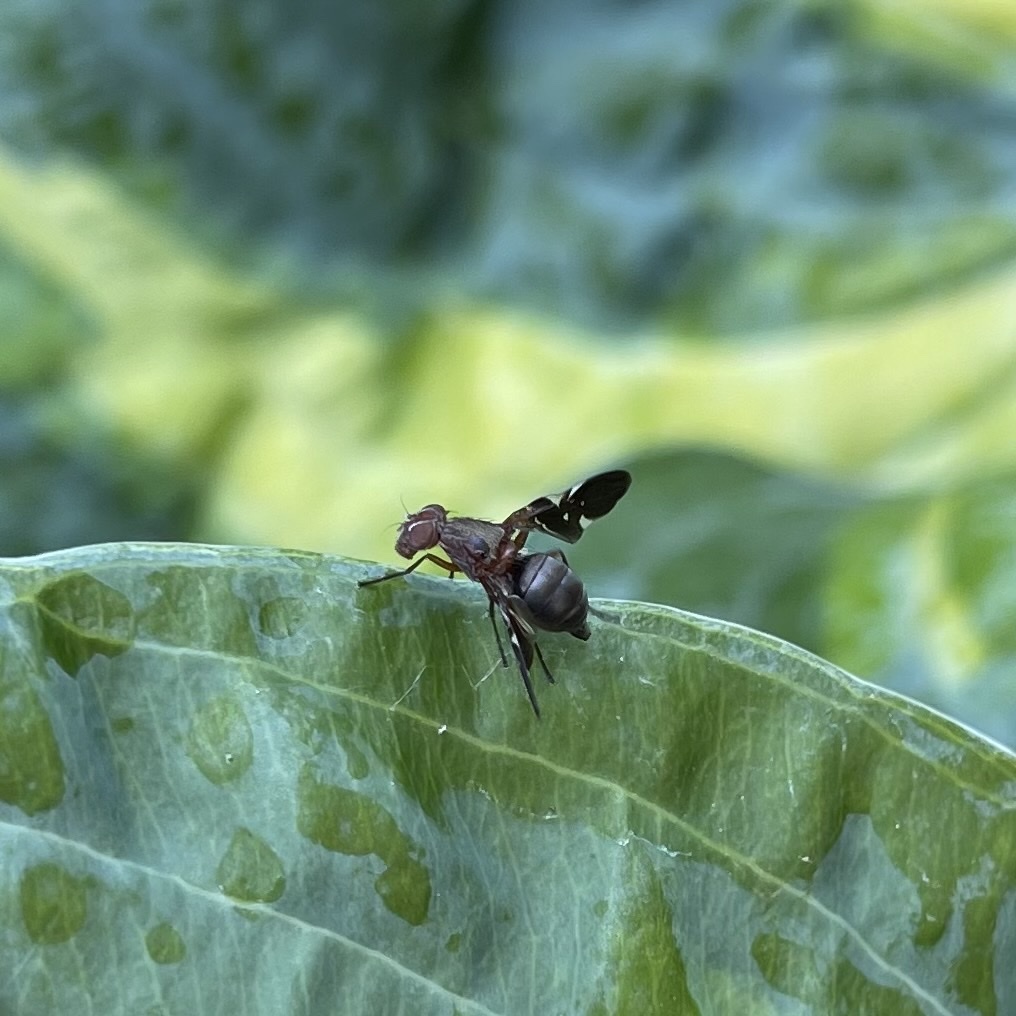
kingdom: Animalia
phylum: Arthropoda
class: Insecta
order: Diptera
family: Ulidiidae
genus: Delphinia
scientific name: Delphinia picta
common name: Common picture-winged fly
